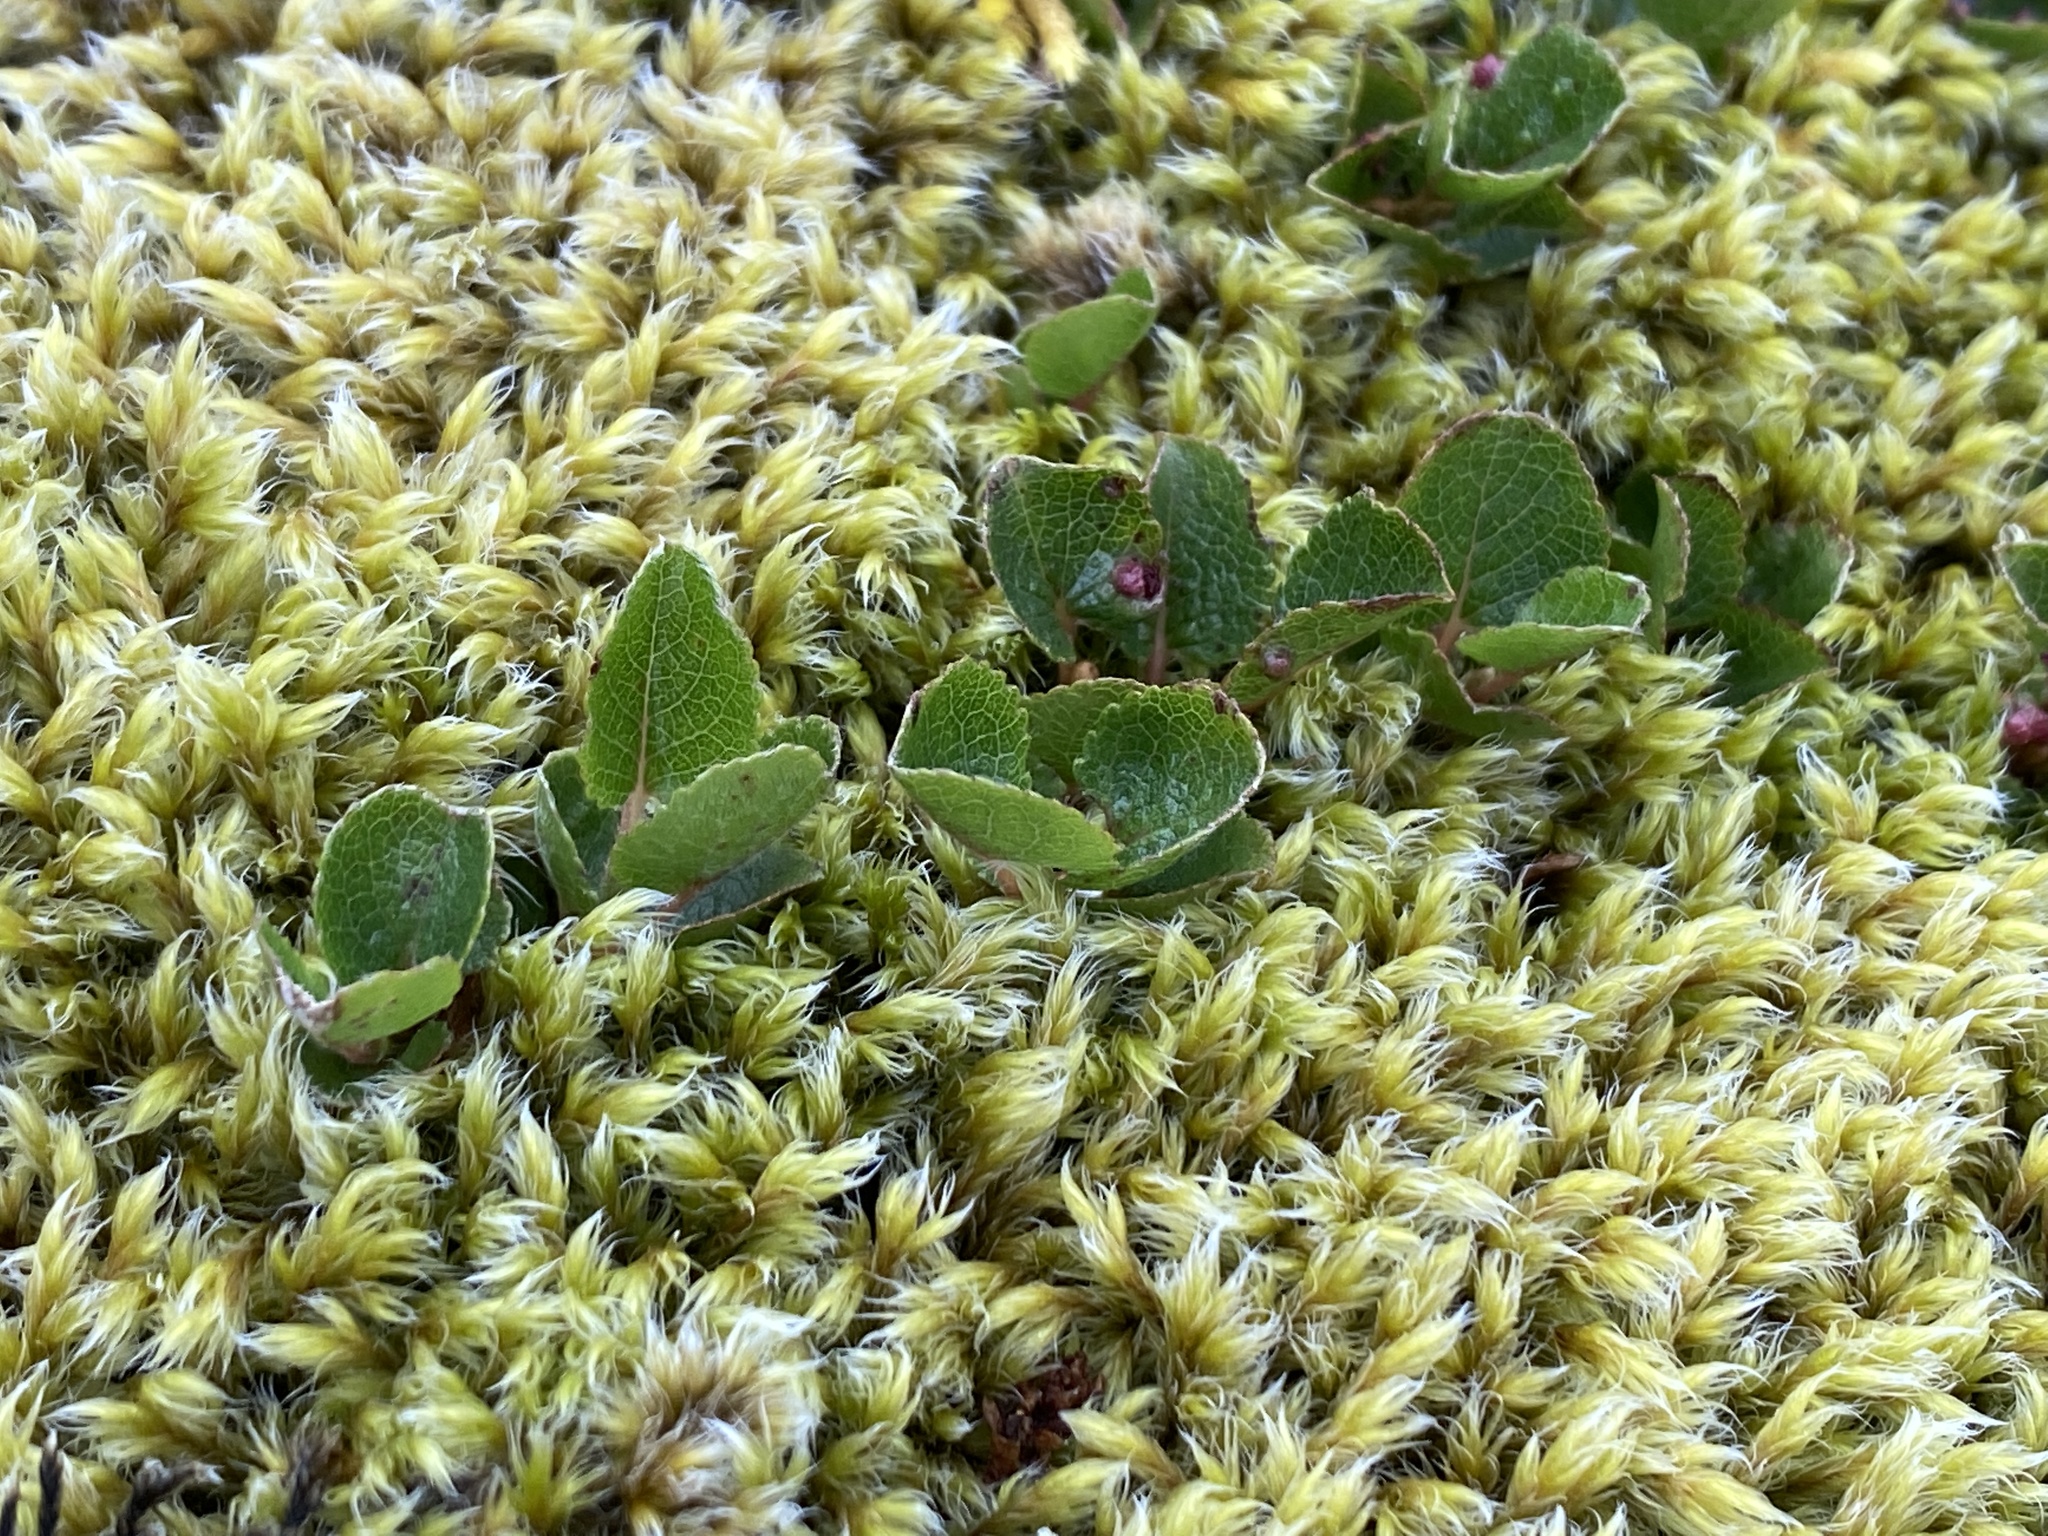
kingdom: Plantae
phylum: Tracheophyta
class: Magnoliopsida
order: Malpighiales
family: Salicaceae
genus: Salix
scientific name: Salix herbacea
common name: Dwarf willow
